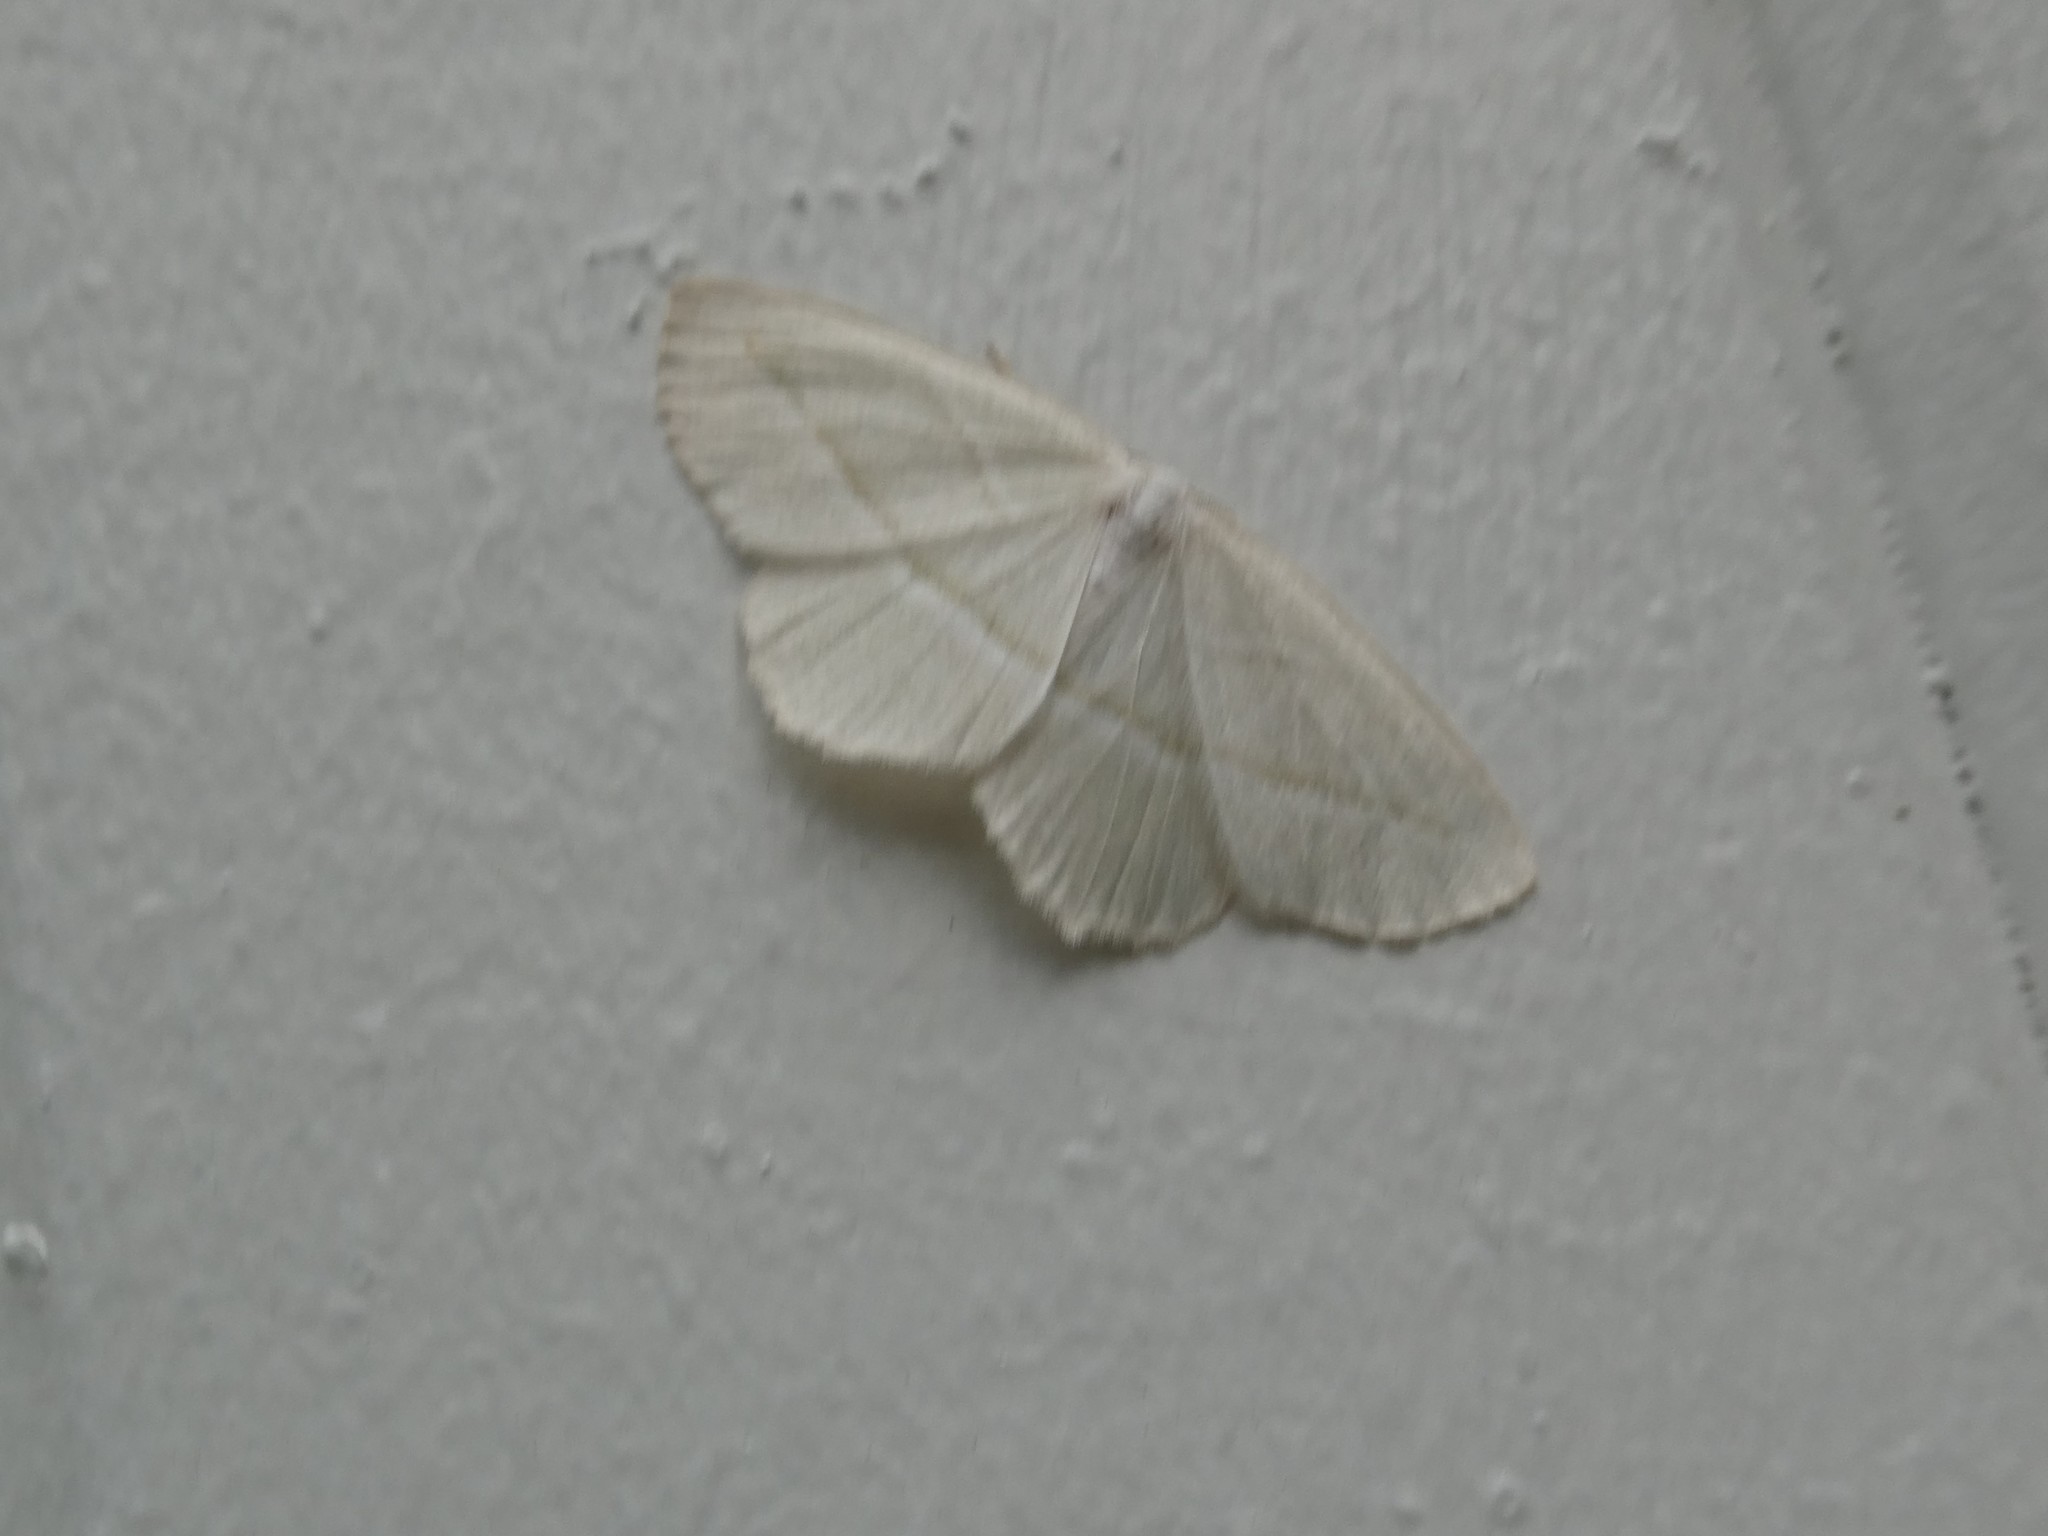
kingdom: Animalia
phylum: Arthropoda
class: Insecta
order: Lepidoptera
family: Geometridae
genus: Campaea
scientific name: Campaea perlata
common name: Fringed looper
